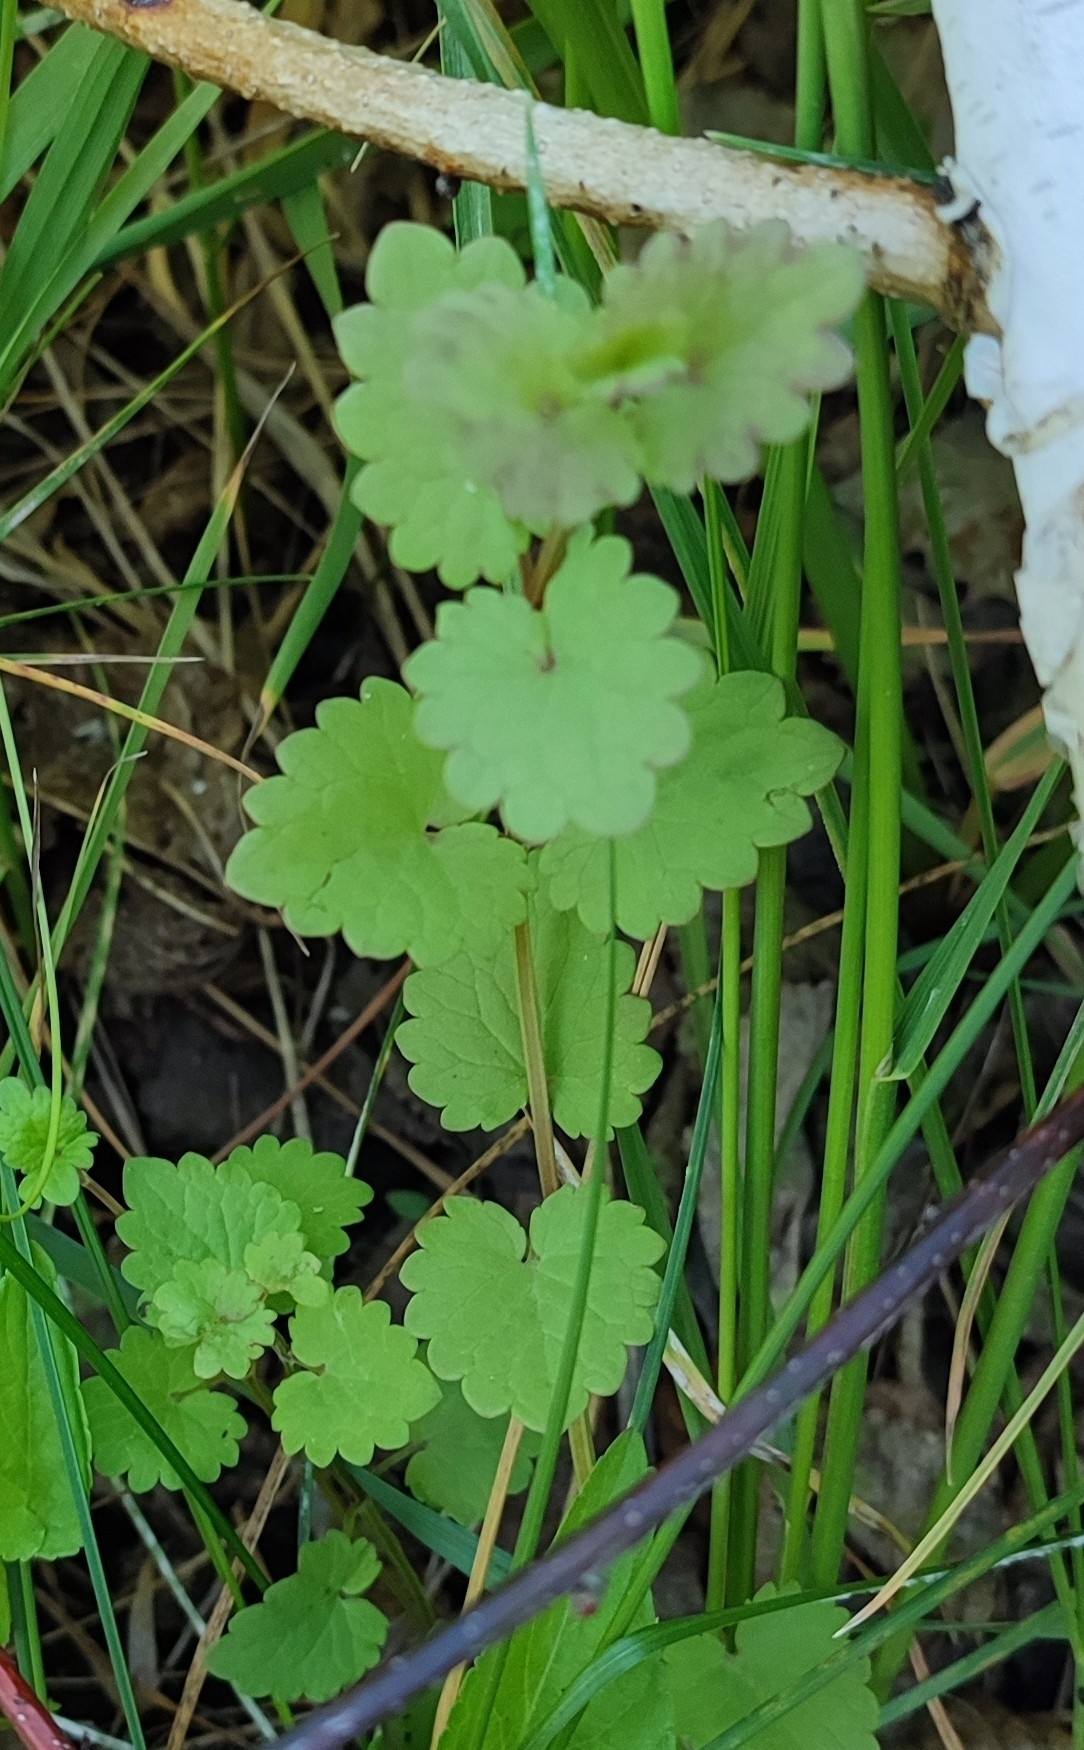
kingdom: Plantae
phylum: Tracheophyta
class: Magnoliopsida
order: Lamiales
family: Lamiaceae
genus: Glechoma
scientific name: Glechoma hederacea
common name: Ground ivy
